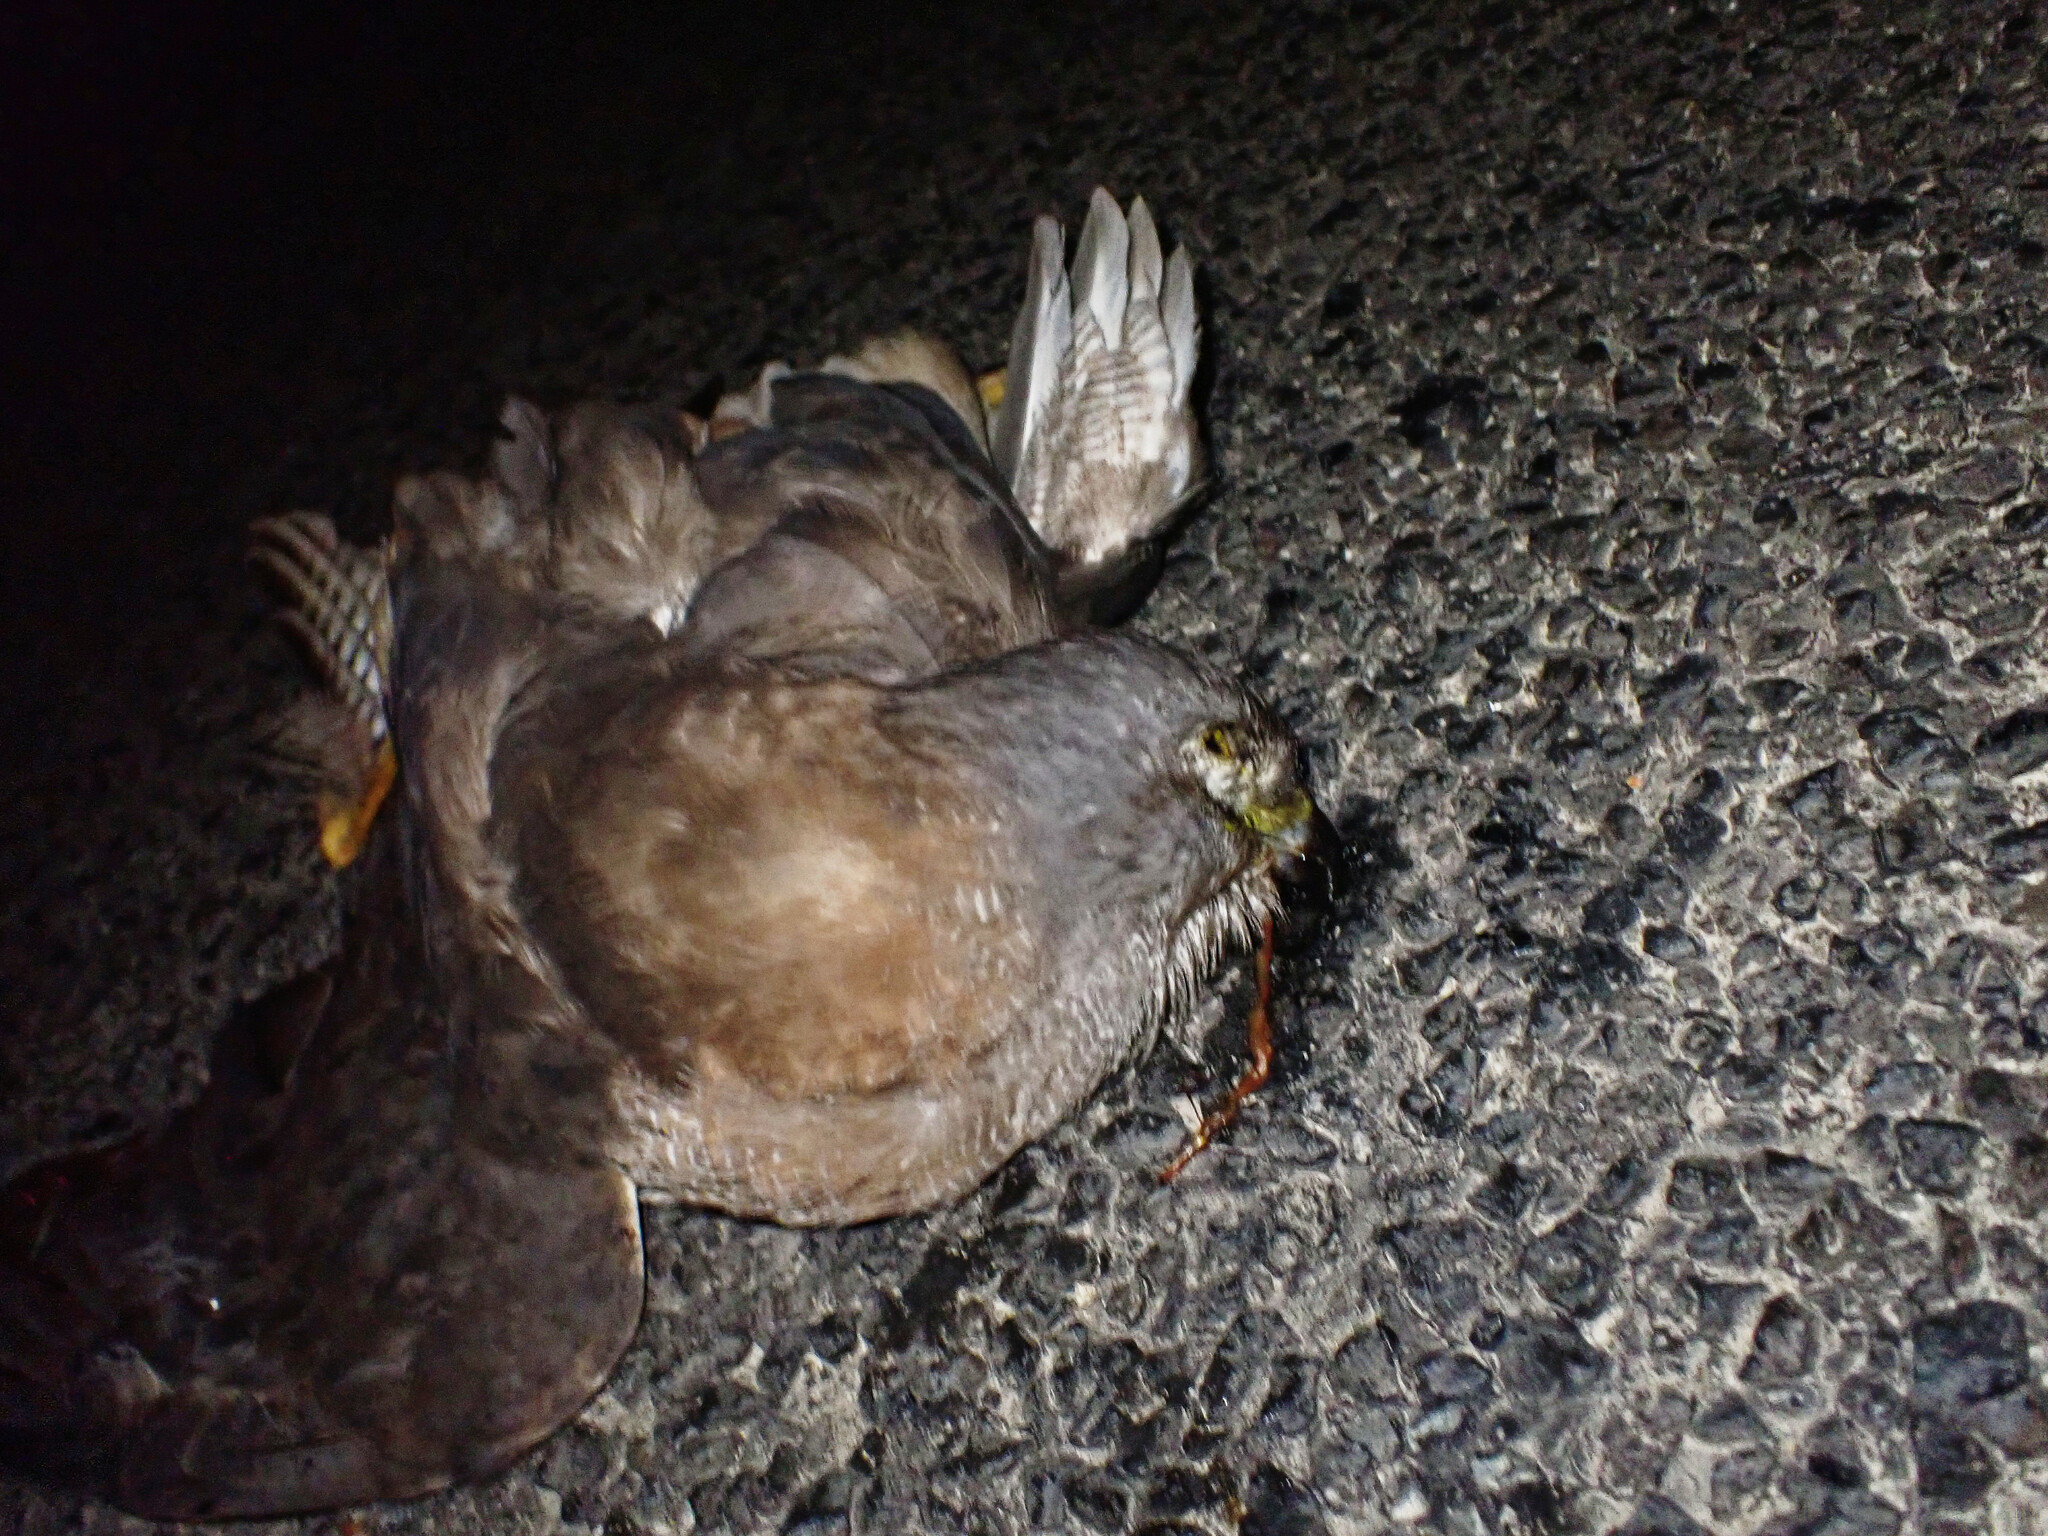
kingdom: Animalia
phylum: Chordata
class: Aves
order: Accipitriformes
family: Accipitridae
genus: Accipiter
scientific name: Accipiter fasciatus
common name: Brown goshawk
